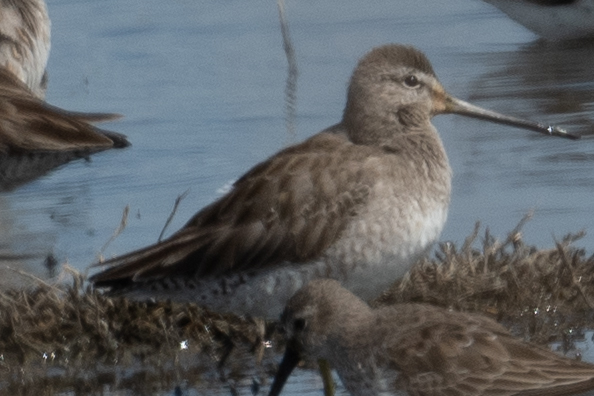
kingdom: Animalia
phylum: Chordata
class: Aves
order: Charadriiformes
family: Scolopacidae
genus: Limnodromus
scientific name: Limnodromus scolopaceus
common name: Long-billed dowitcher
